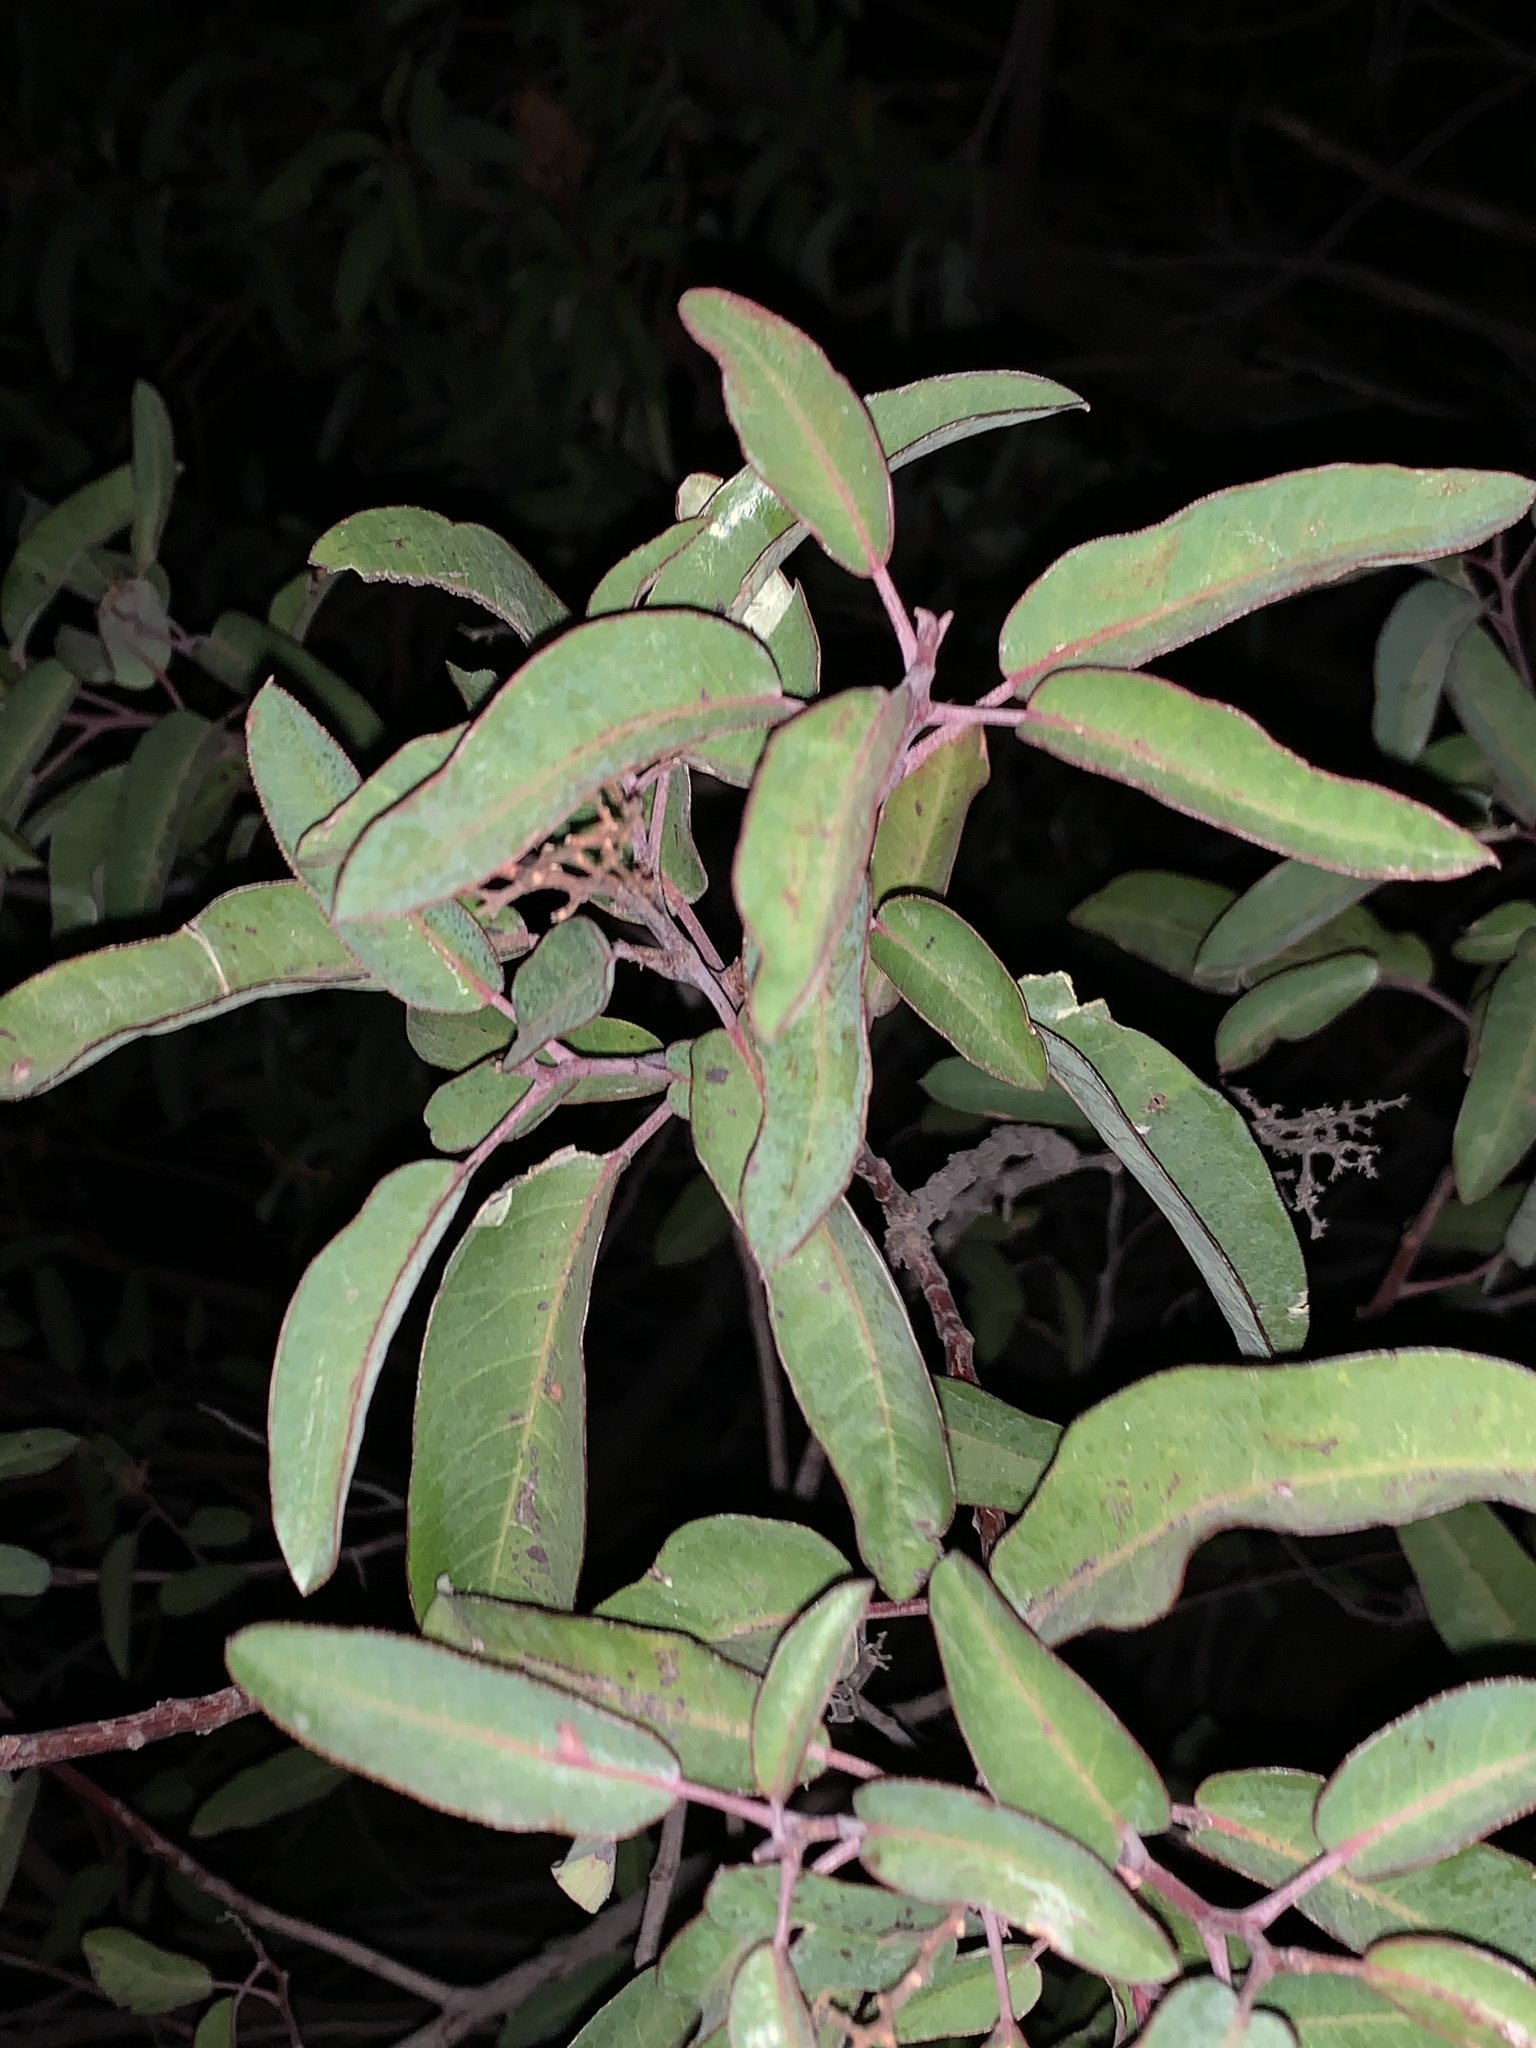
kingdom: Plantae
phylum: Tracheophyta
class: Magnoliopsida
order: Sapindales
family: Anacardiaceae
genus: Malosma
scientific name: Malosma laurina
